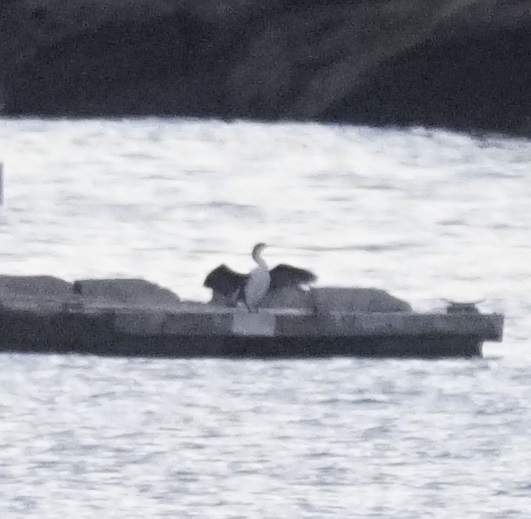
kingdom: Animalia
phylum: Chordata
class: Aves
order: Suliformes
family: Phalacrocoracidae
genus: Phalacrocorax
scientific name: Phalacrocorax varius
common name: Pied cormorant
